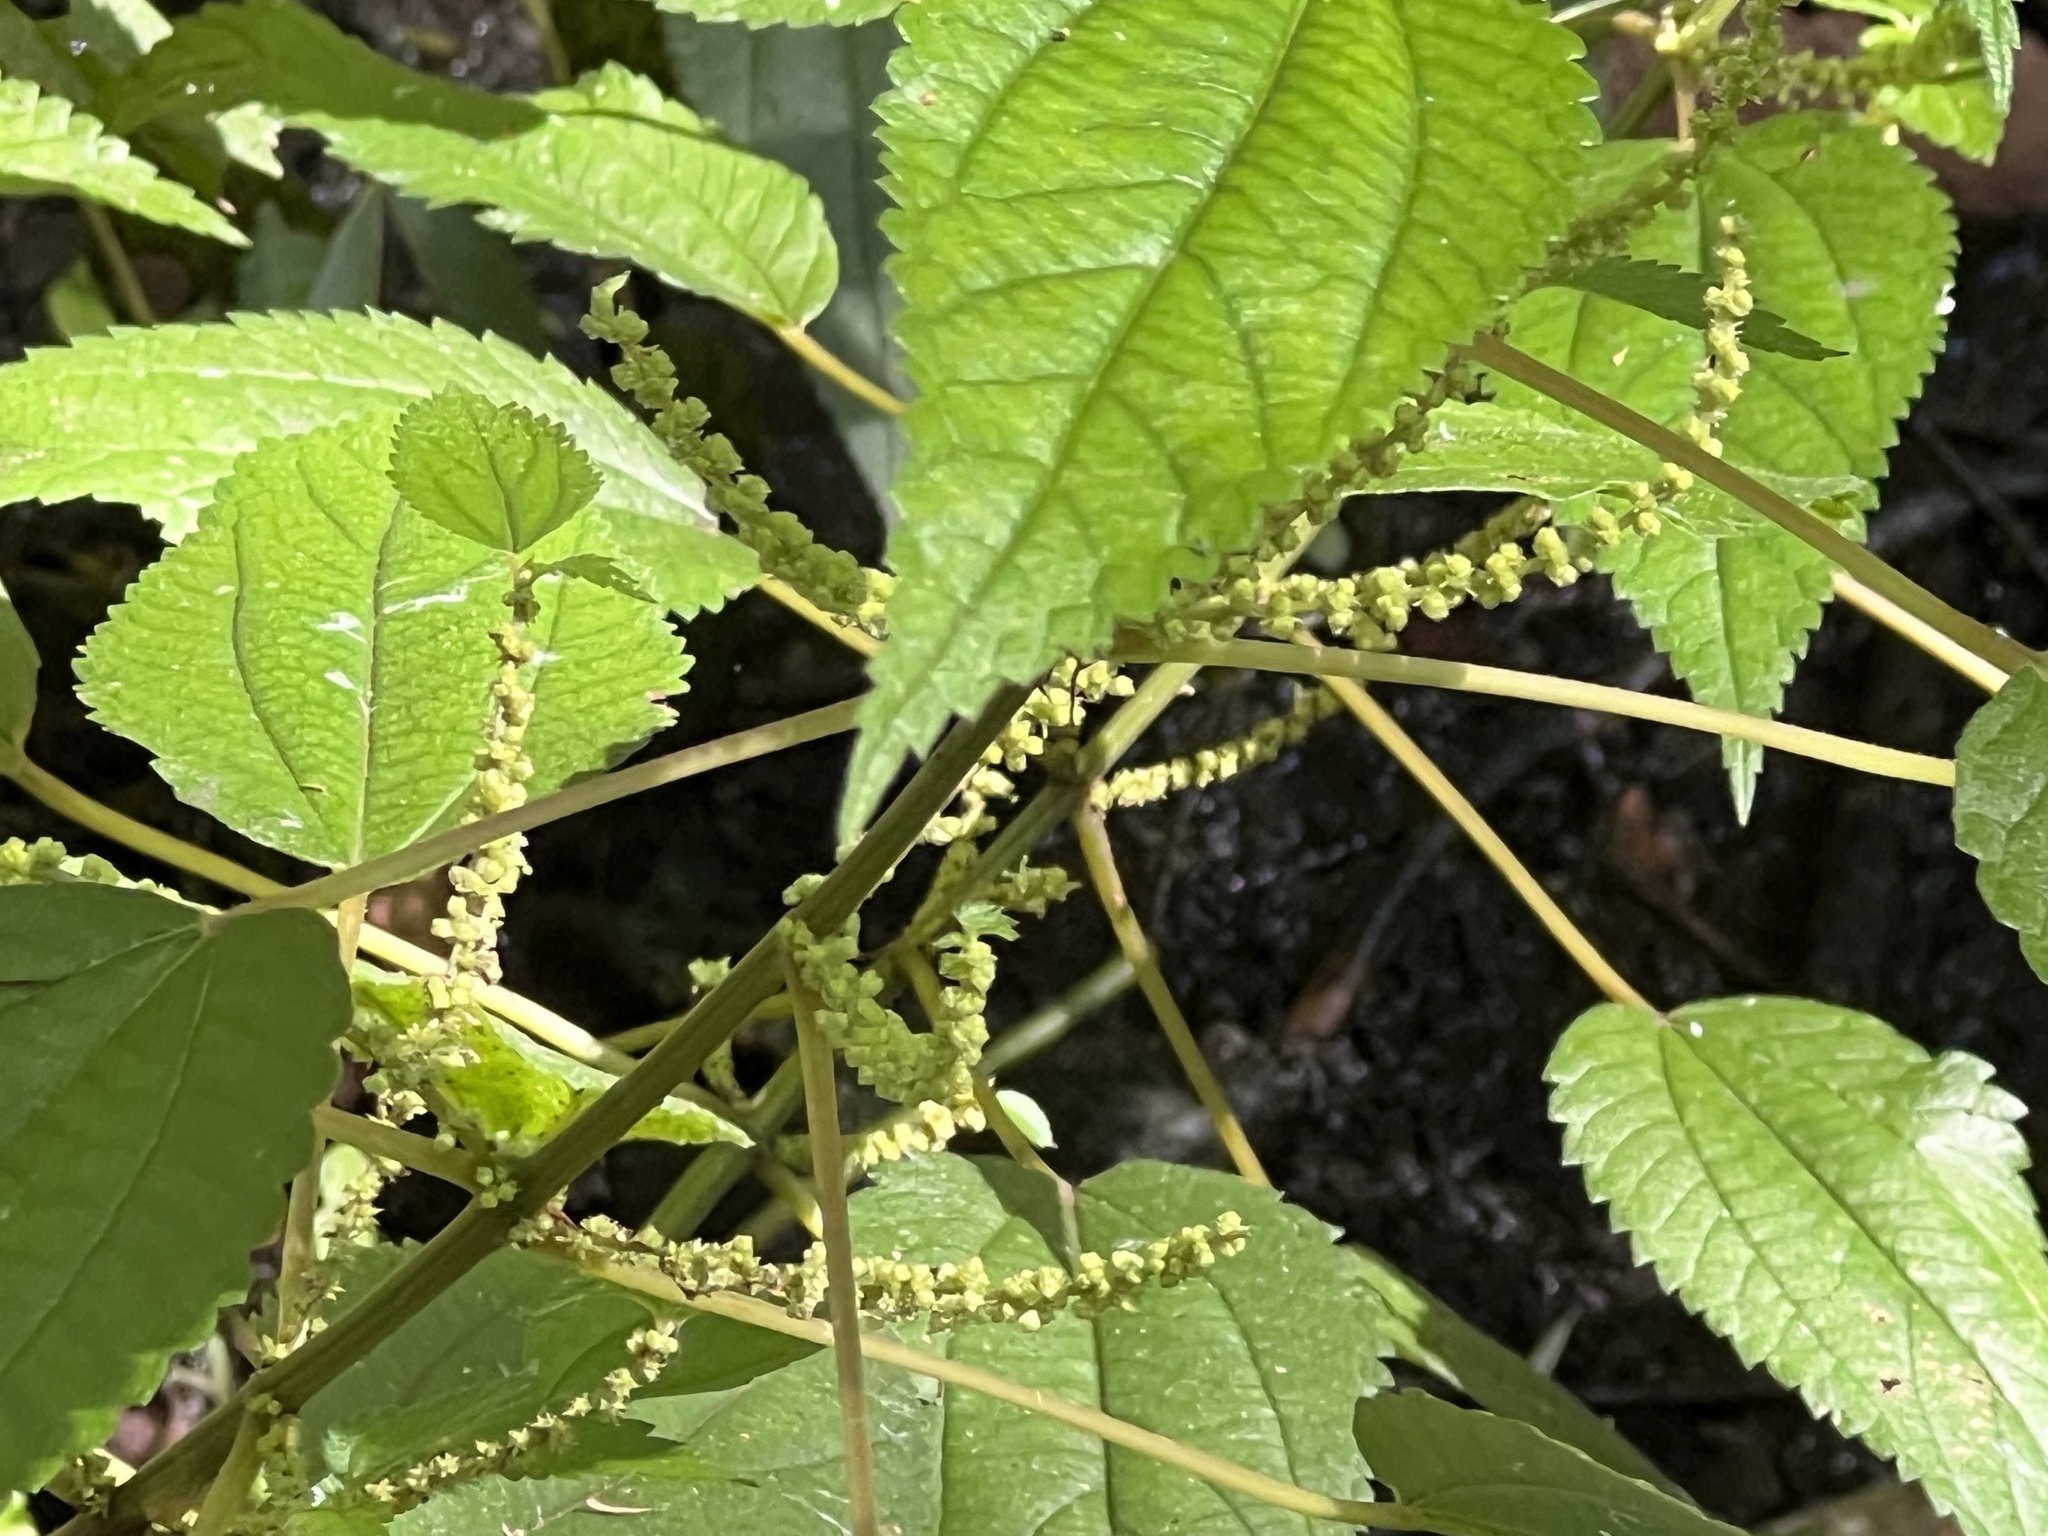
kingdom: Plantae
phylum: Tracheophyta
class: Magnoliopsida
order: Rosales
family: Urticaceae
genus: Boehmeria
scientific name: Boehmeria cylindrica
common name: Bog-hemp
